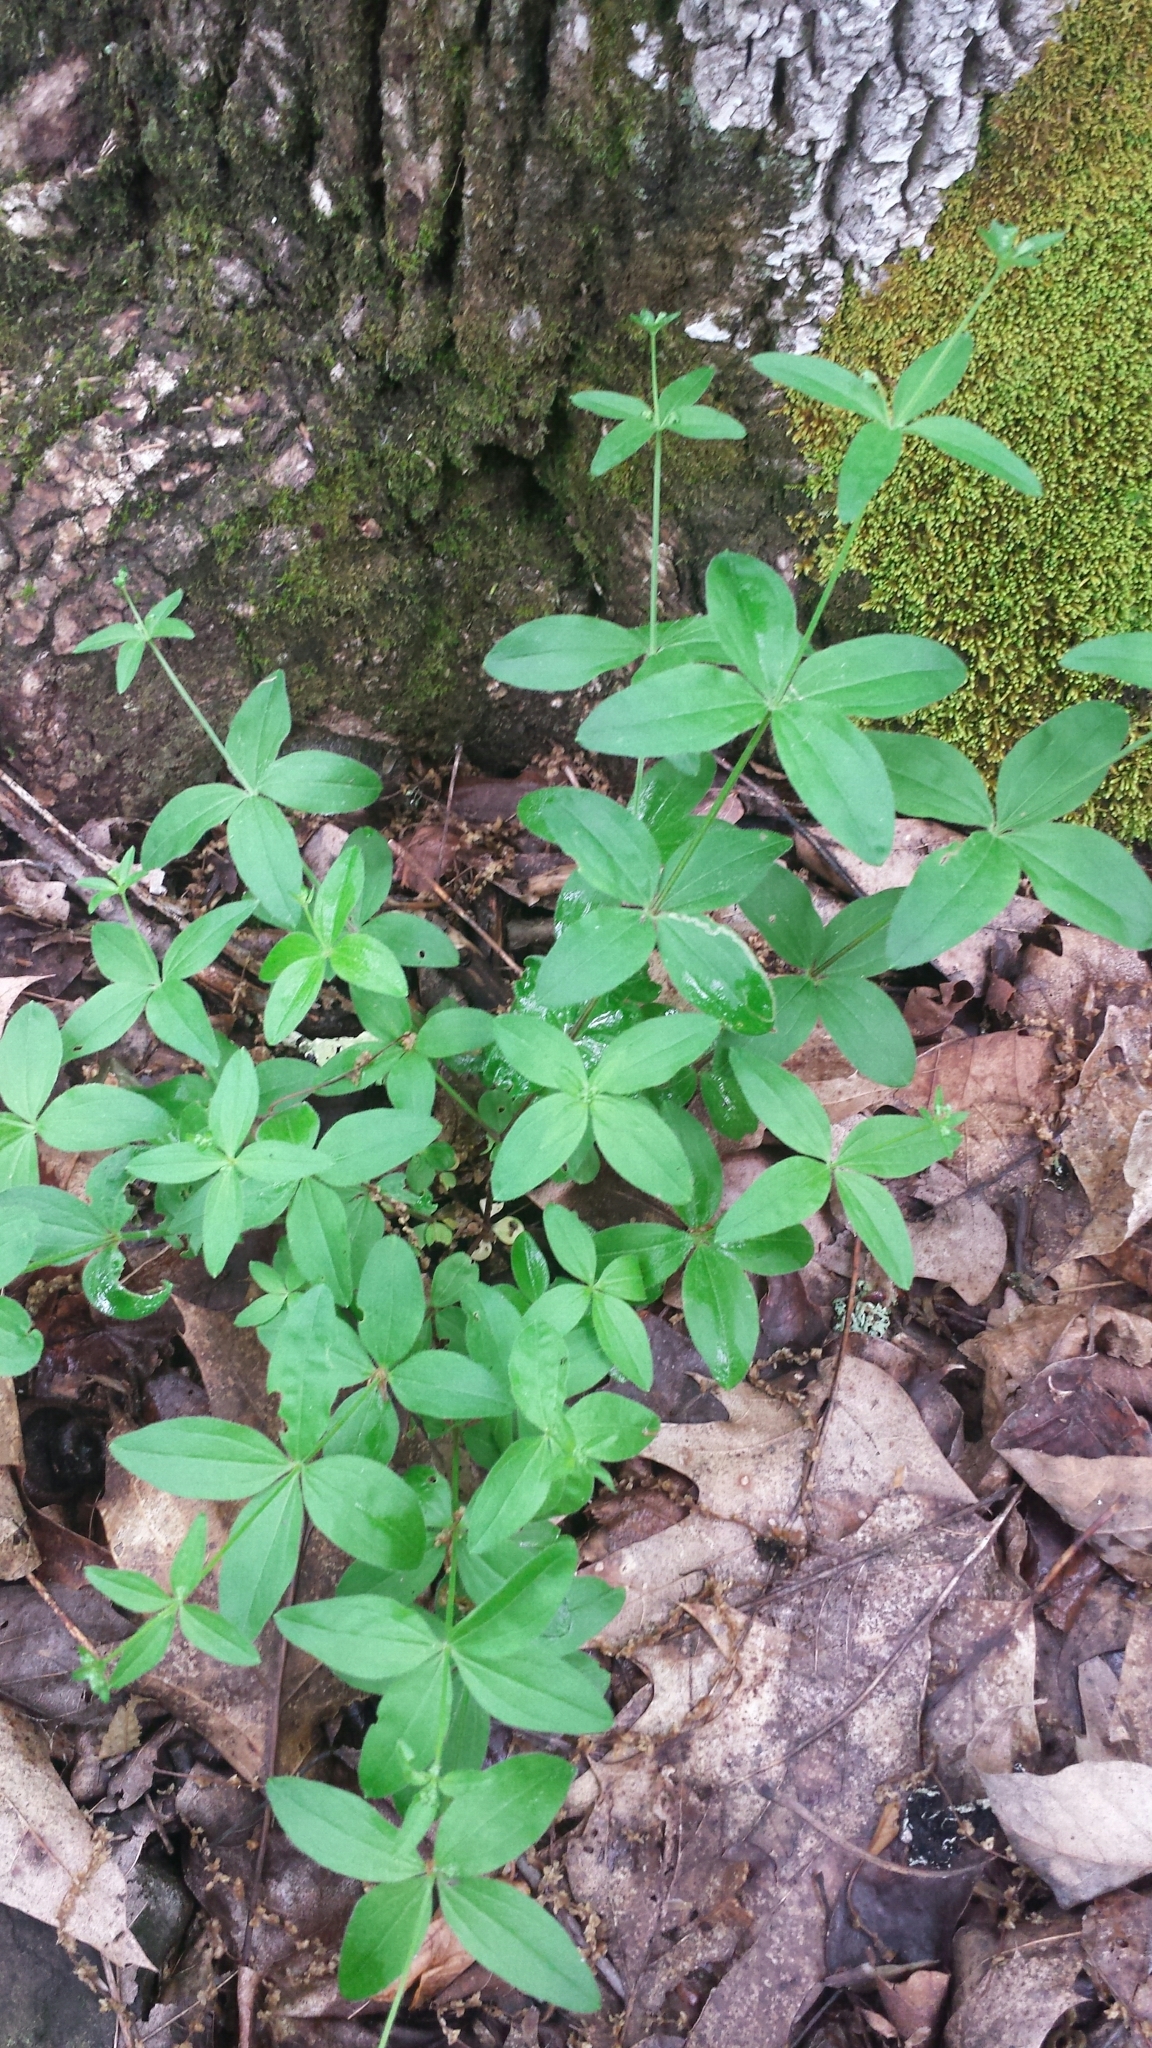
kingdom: Plantae
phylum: Tracheophyta
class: Magnoliopsida
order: Gentianales
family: Rubiaceae
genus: Galium
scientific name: Galium circaezans
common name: Forest bedstraw
